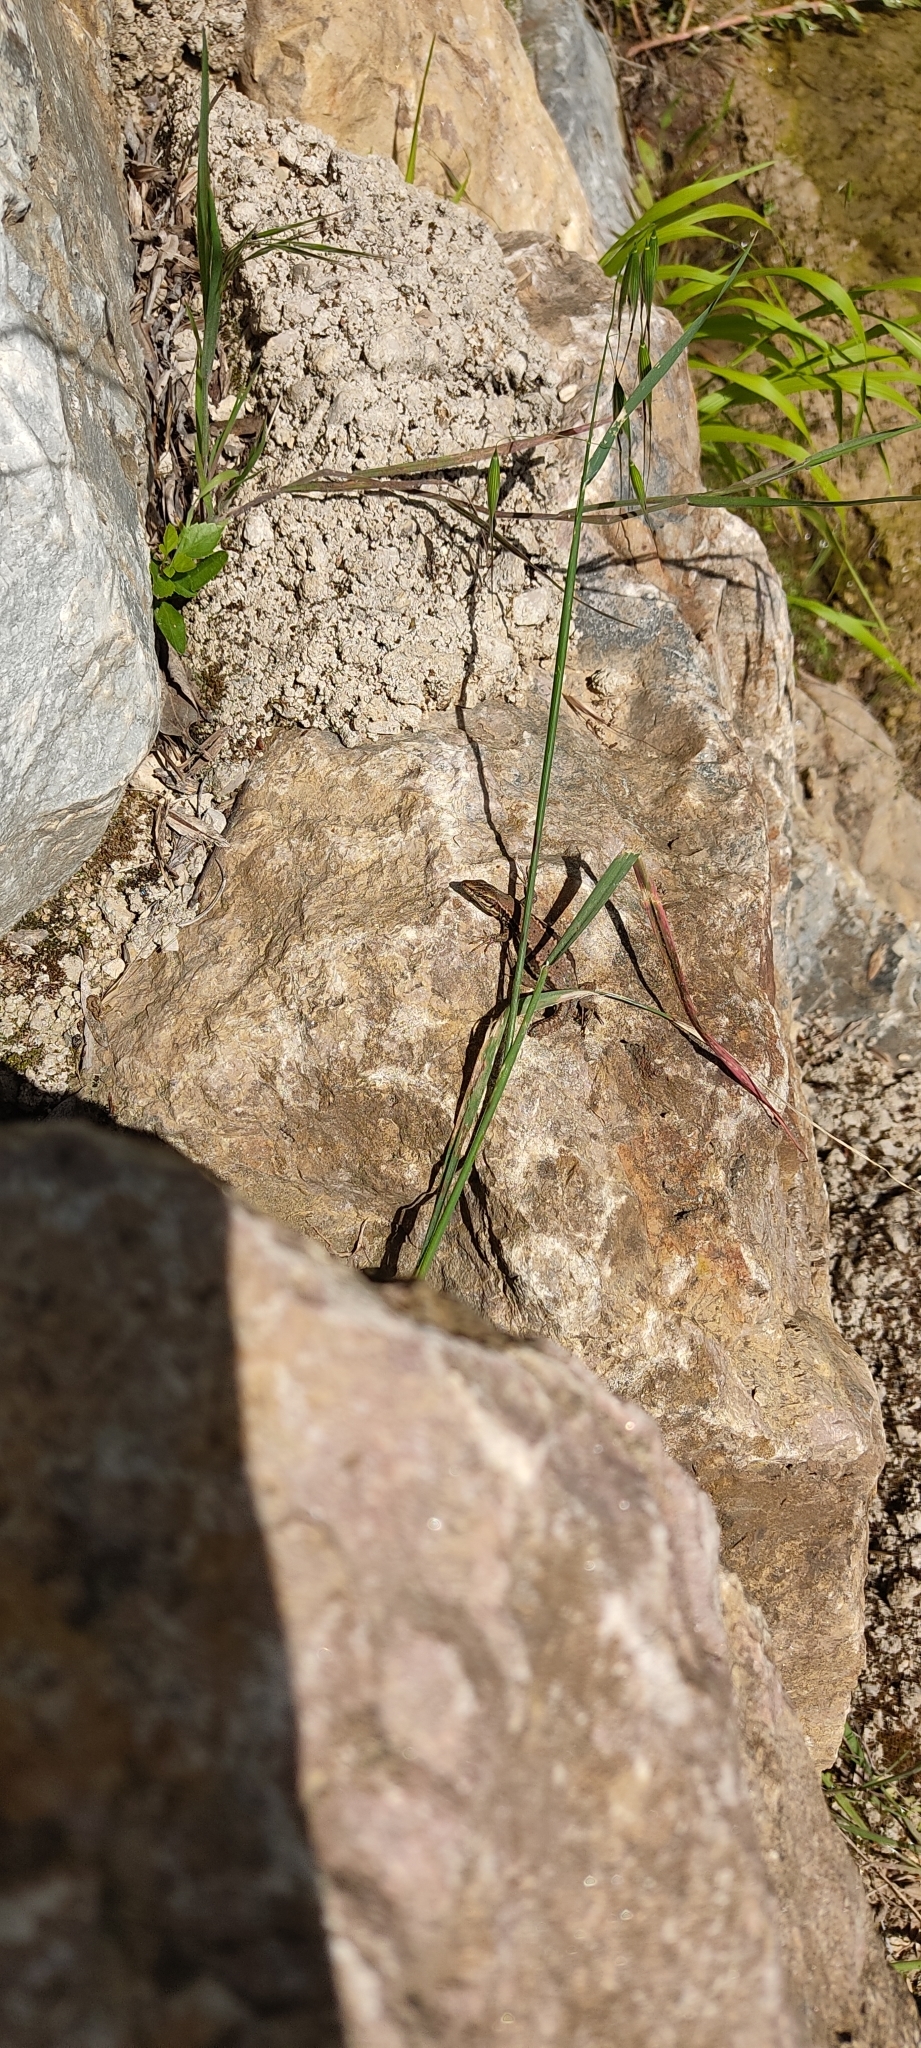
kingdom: Animalia
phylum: Chordata
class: Squamata
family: Lacertidae
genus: Podarcis
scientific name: Podarcis muralis
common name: Common wall lizard
